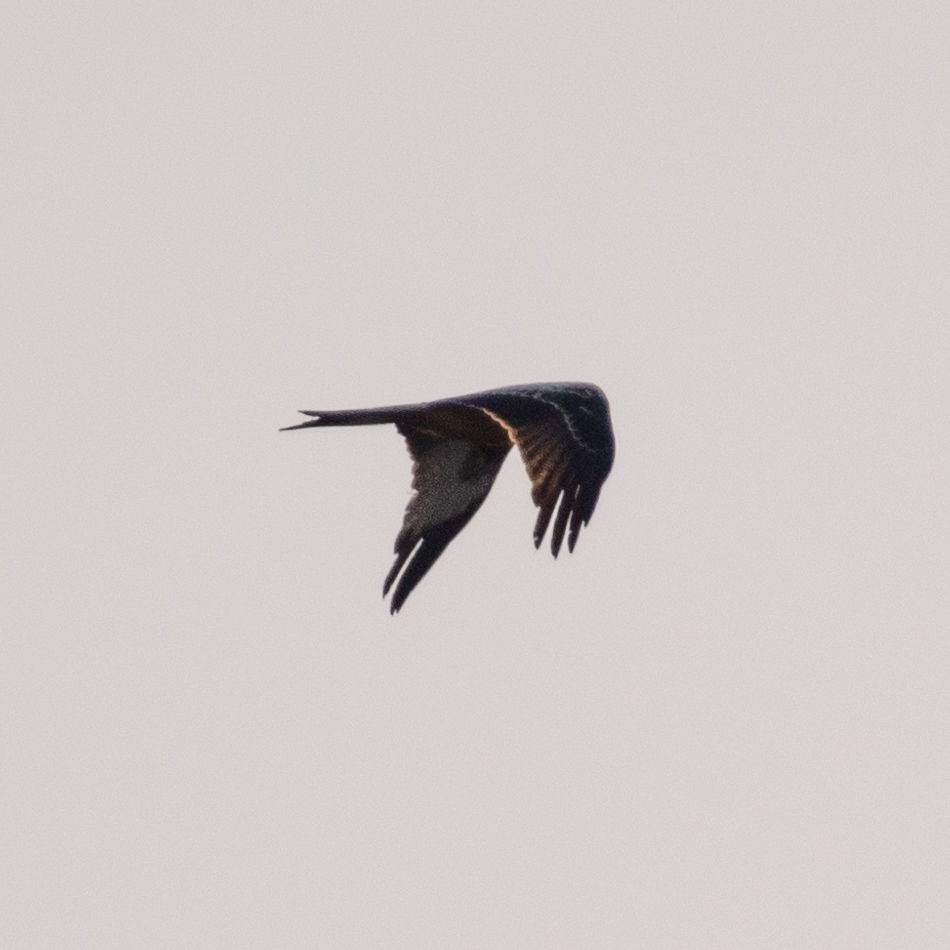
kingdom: Animalia
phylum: Chordata
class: Aves
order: Accipitriformes
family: Accipitridae
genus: Milvus
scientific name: Milvus milvus
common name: Red kite
